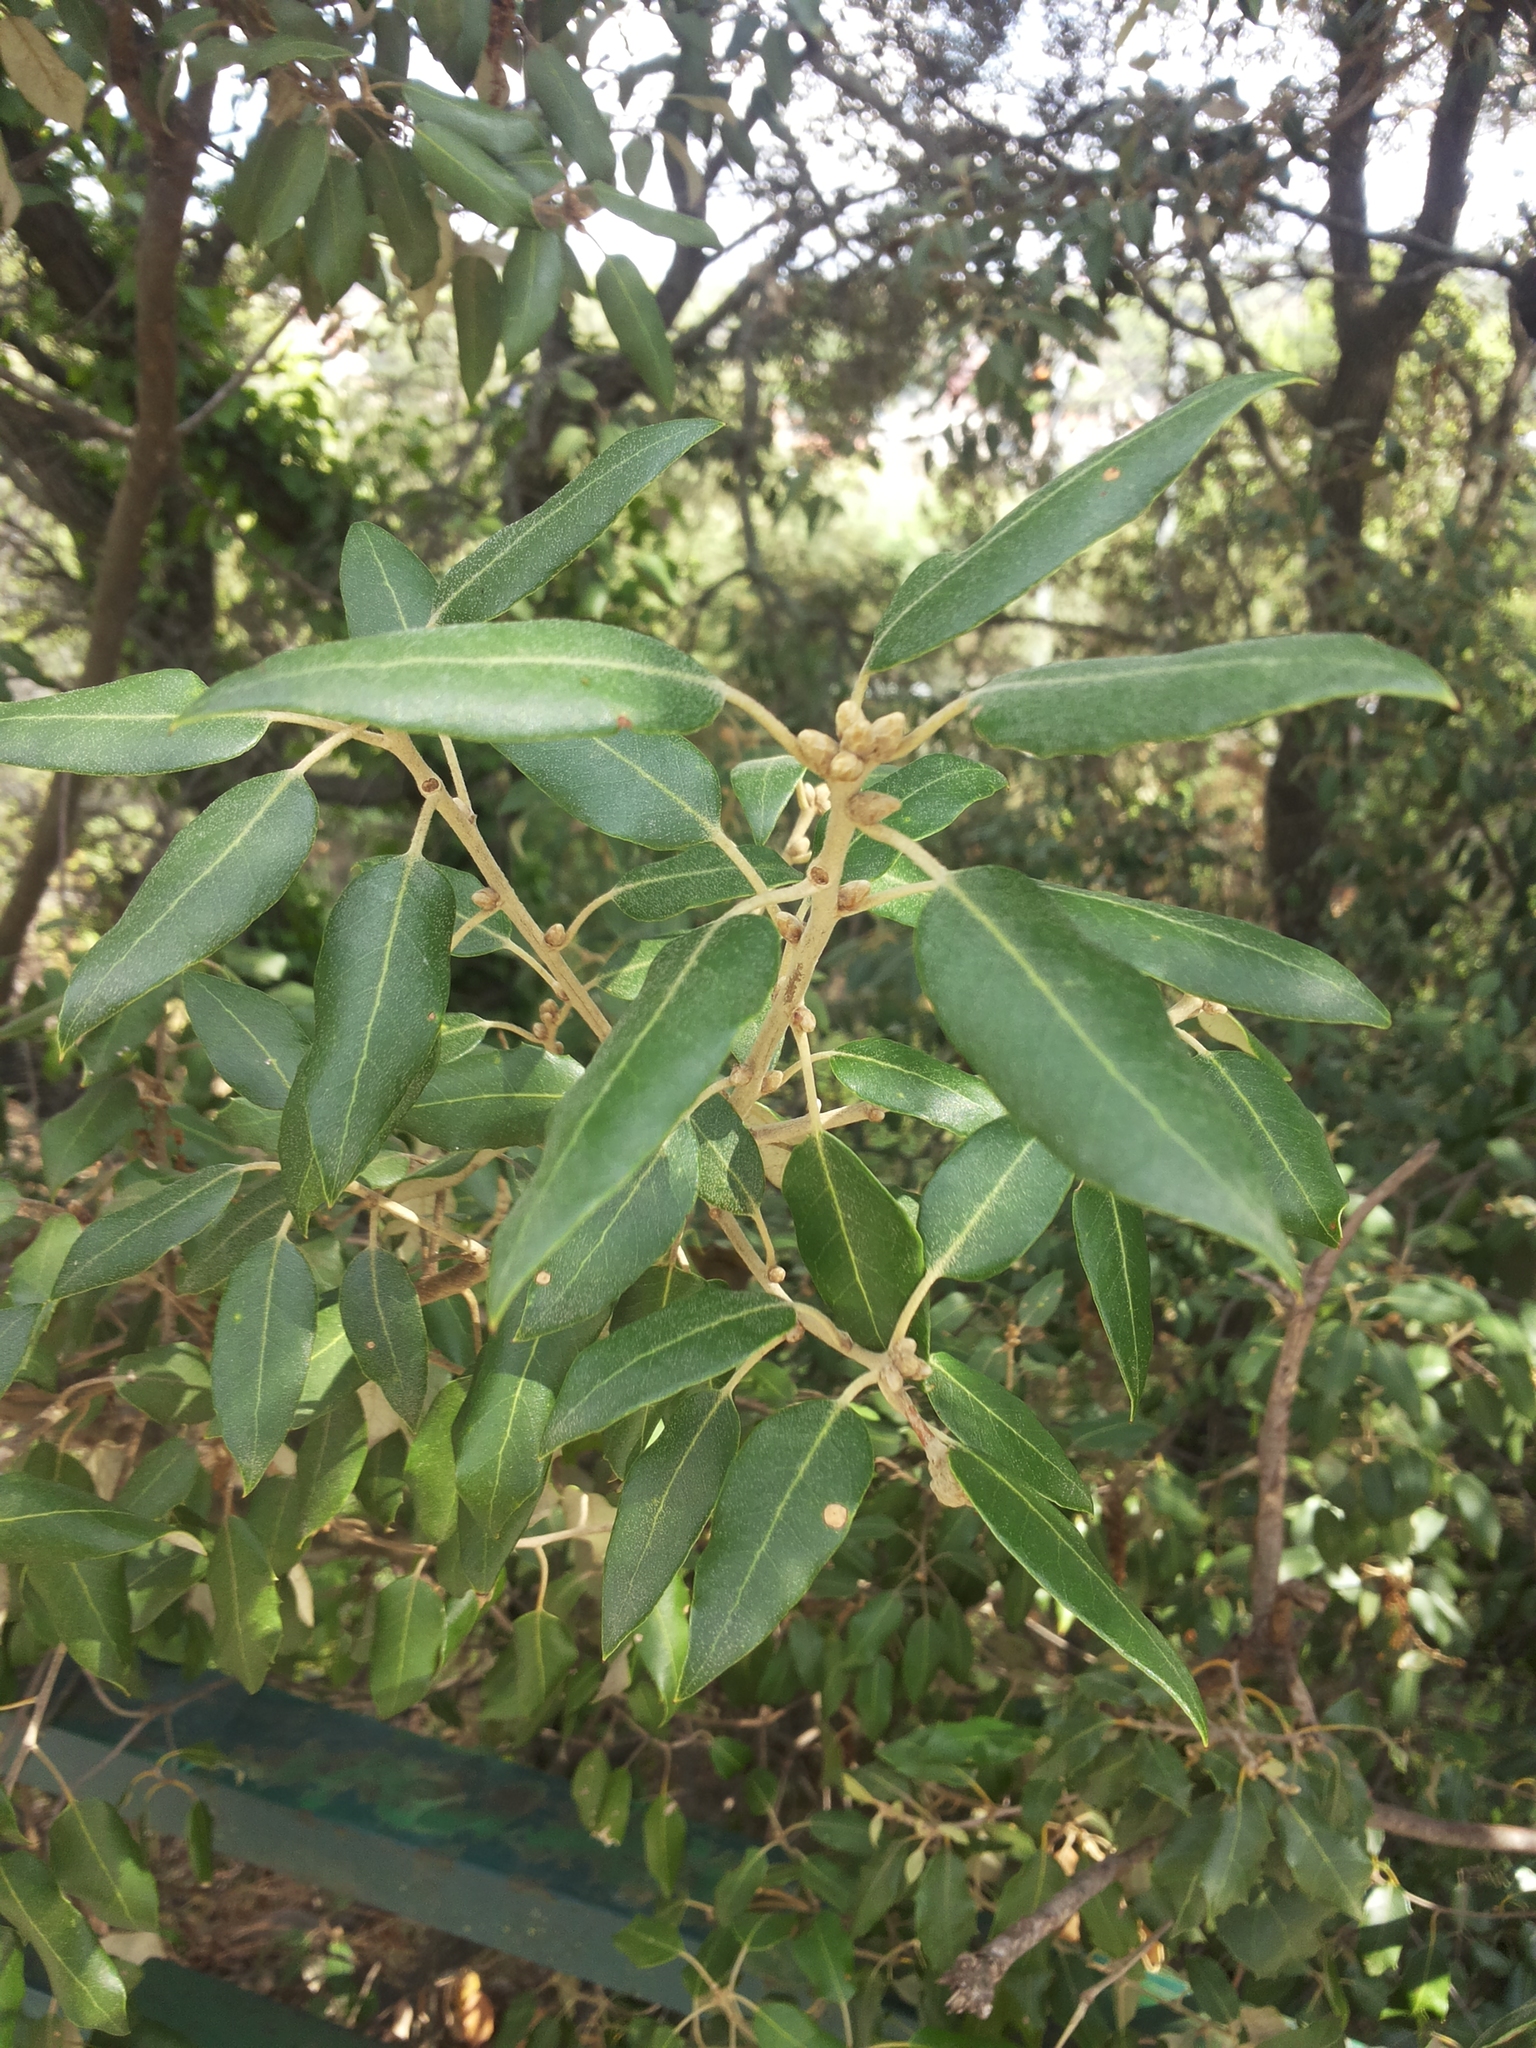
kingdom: Plantae
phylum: Tracheophyta
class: Magnoliopsida
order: Fagales
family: Fagaceae
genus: Quercus
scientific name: Quercus ilex
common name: Evergreen oak
